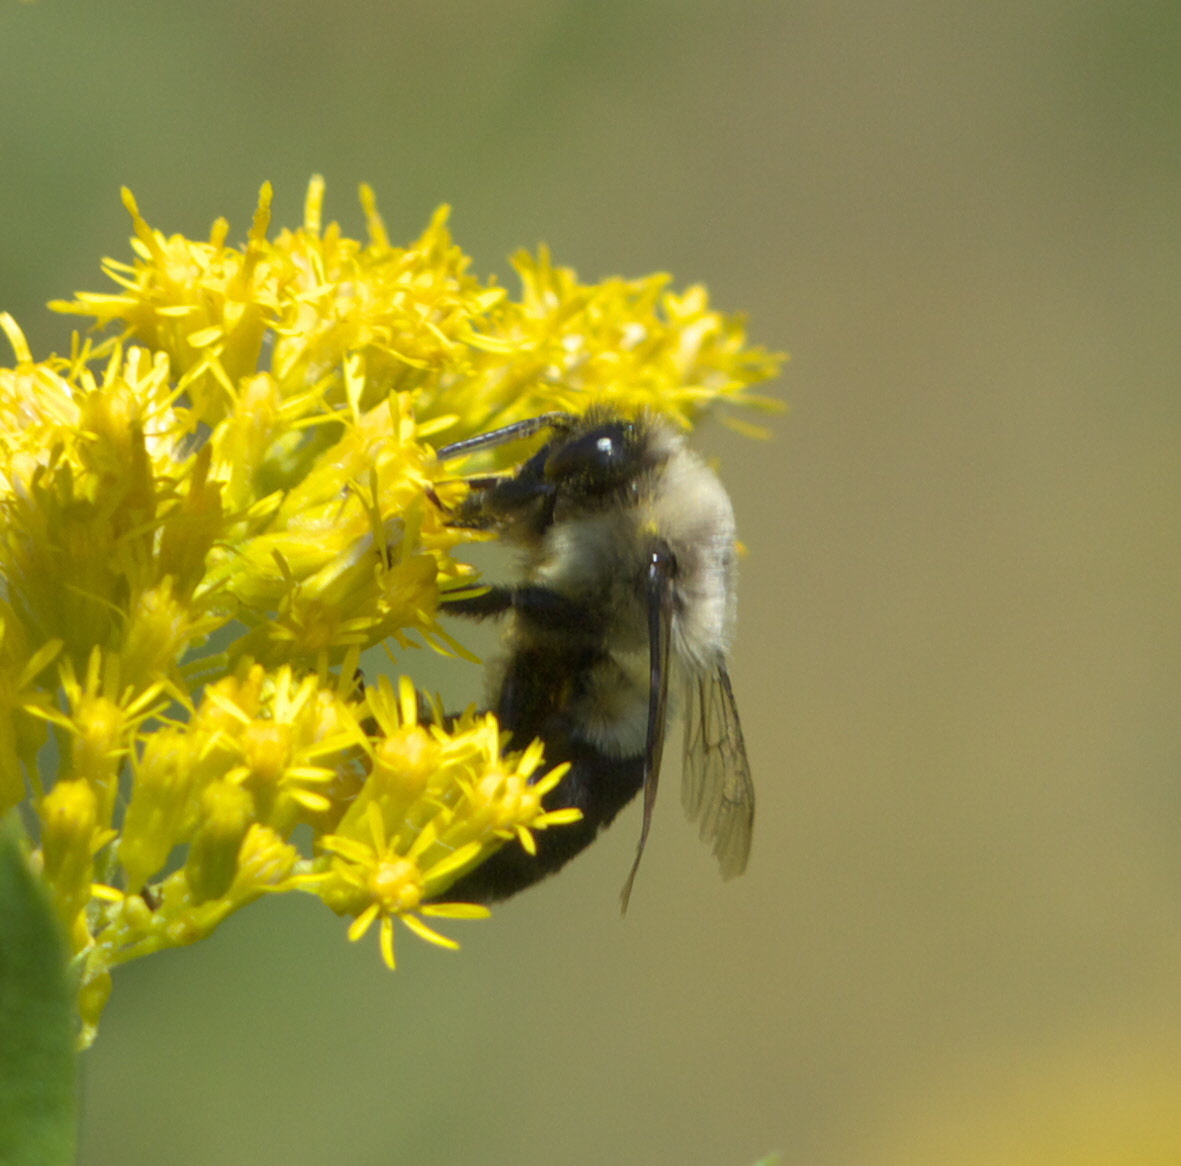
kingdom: Animalia
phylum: Arthropoda
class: Insecta
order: Hymenoptera
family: Apidae
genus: Bombus
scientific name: Bombus impatiens
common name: Common eastern bumble bee
